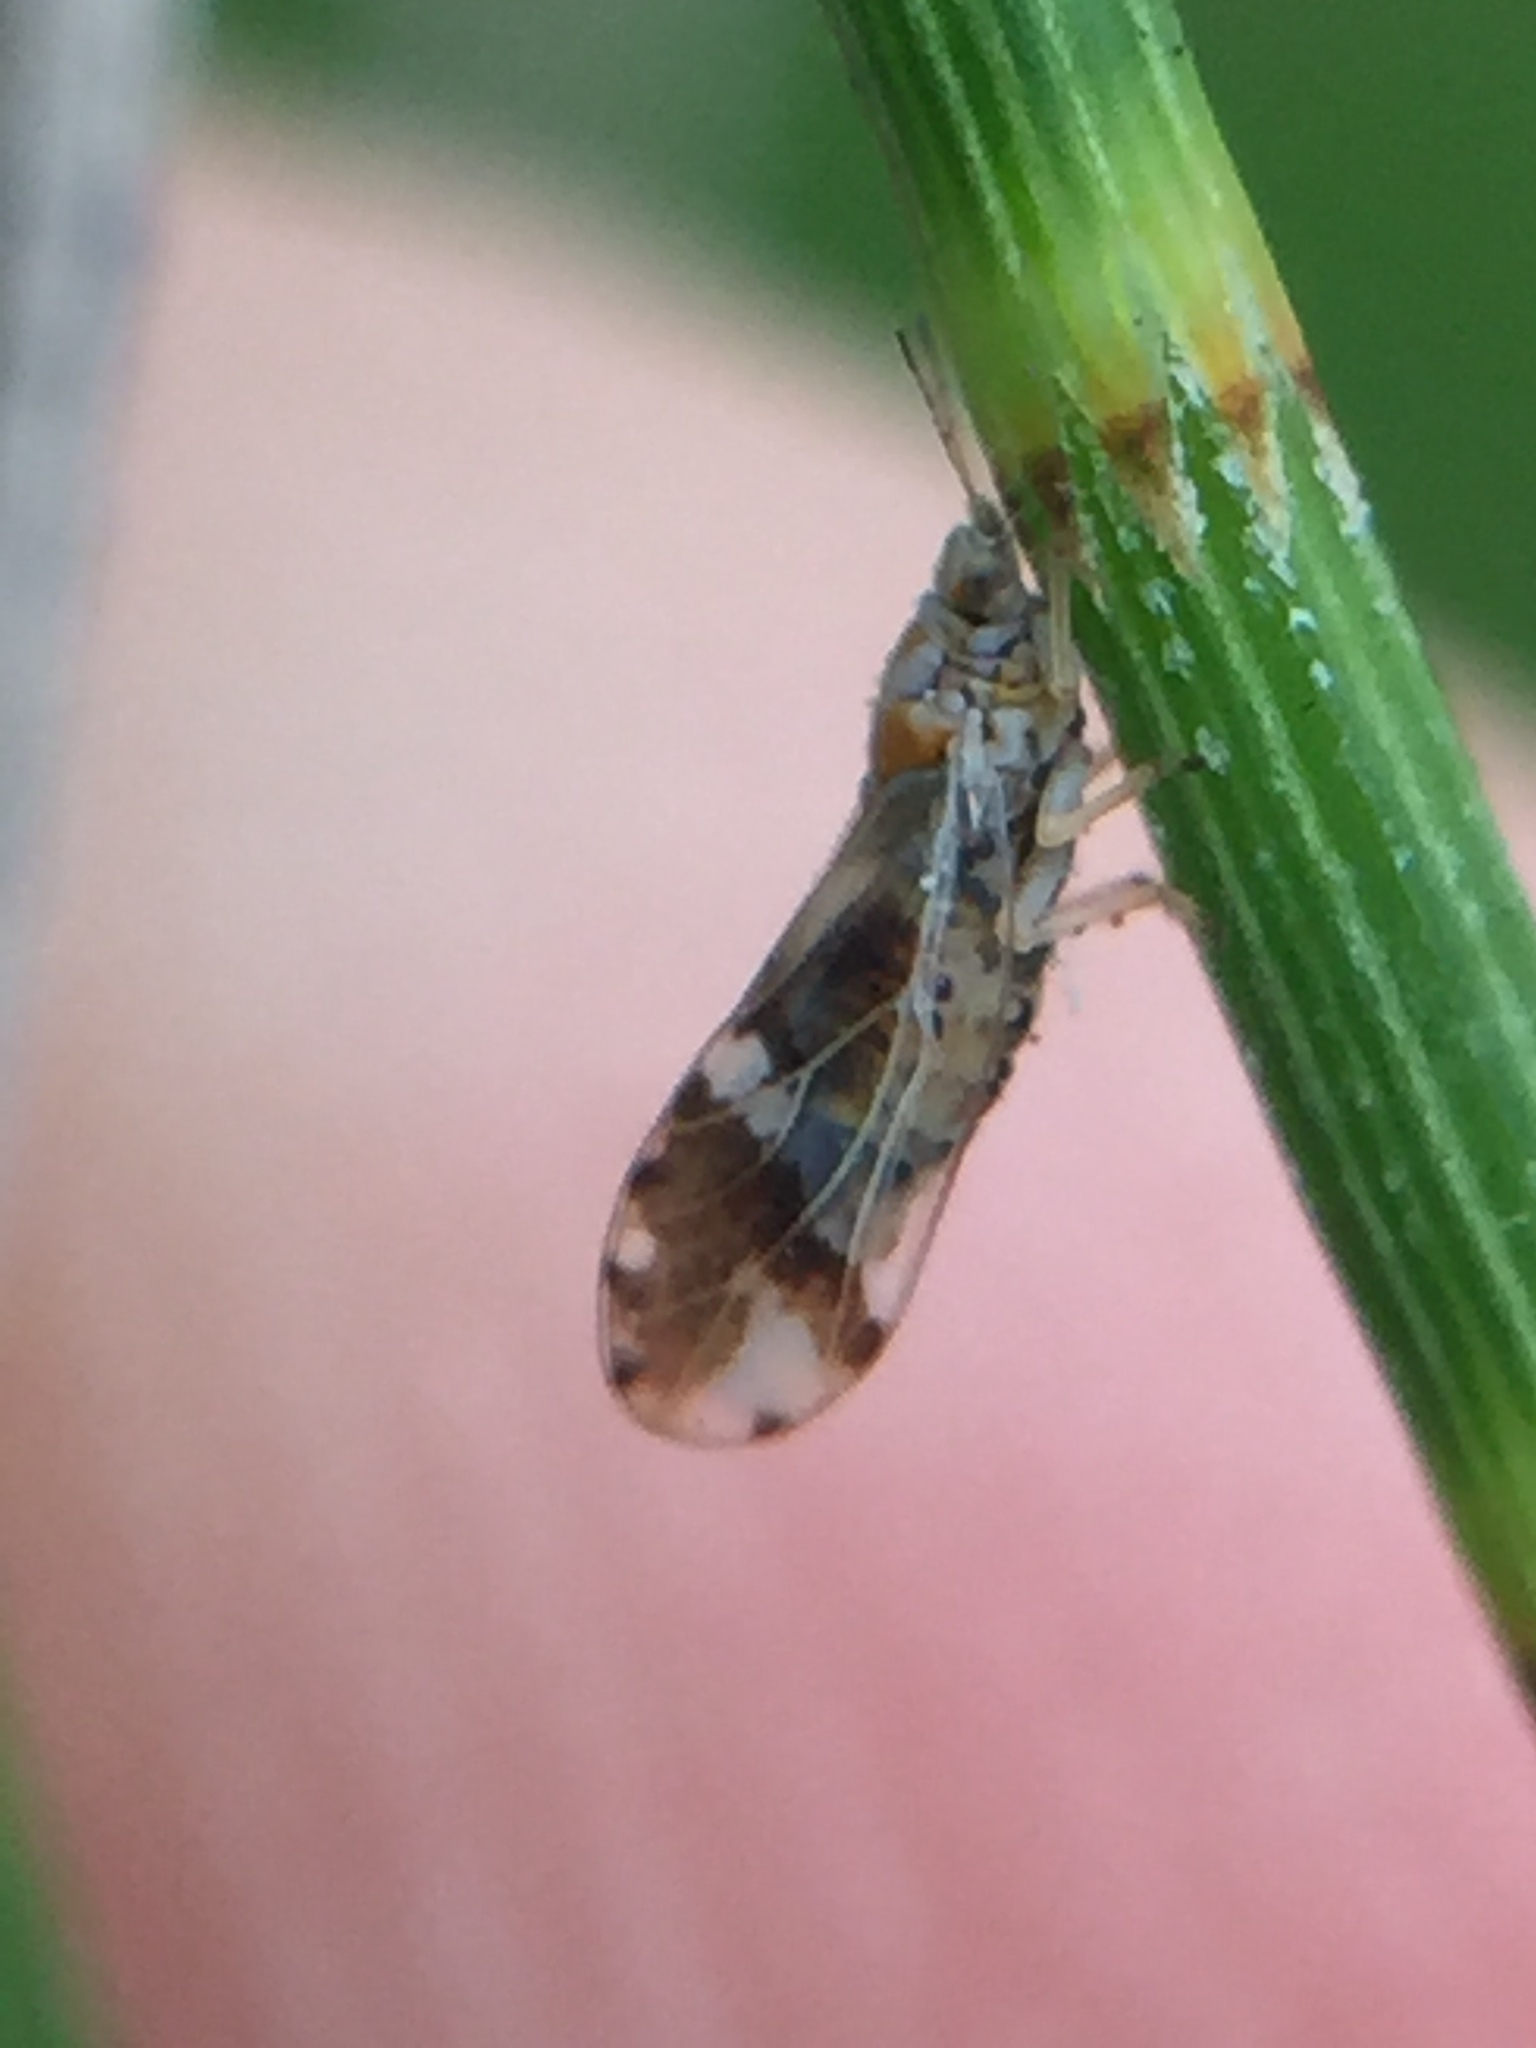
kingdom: Animalia
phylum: Arthropoda
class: Insecta
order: Hemiptera
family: Triozidae
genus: Casuarinicola
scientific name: Casuarinicola nigrimaculatus
